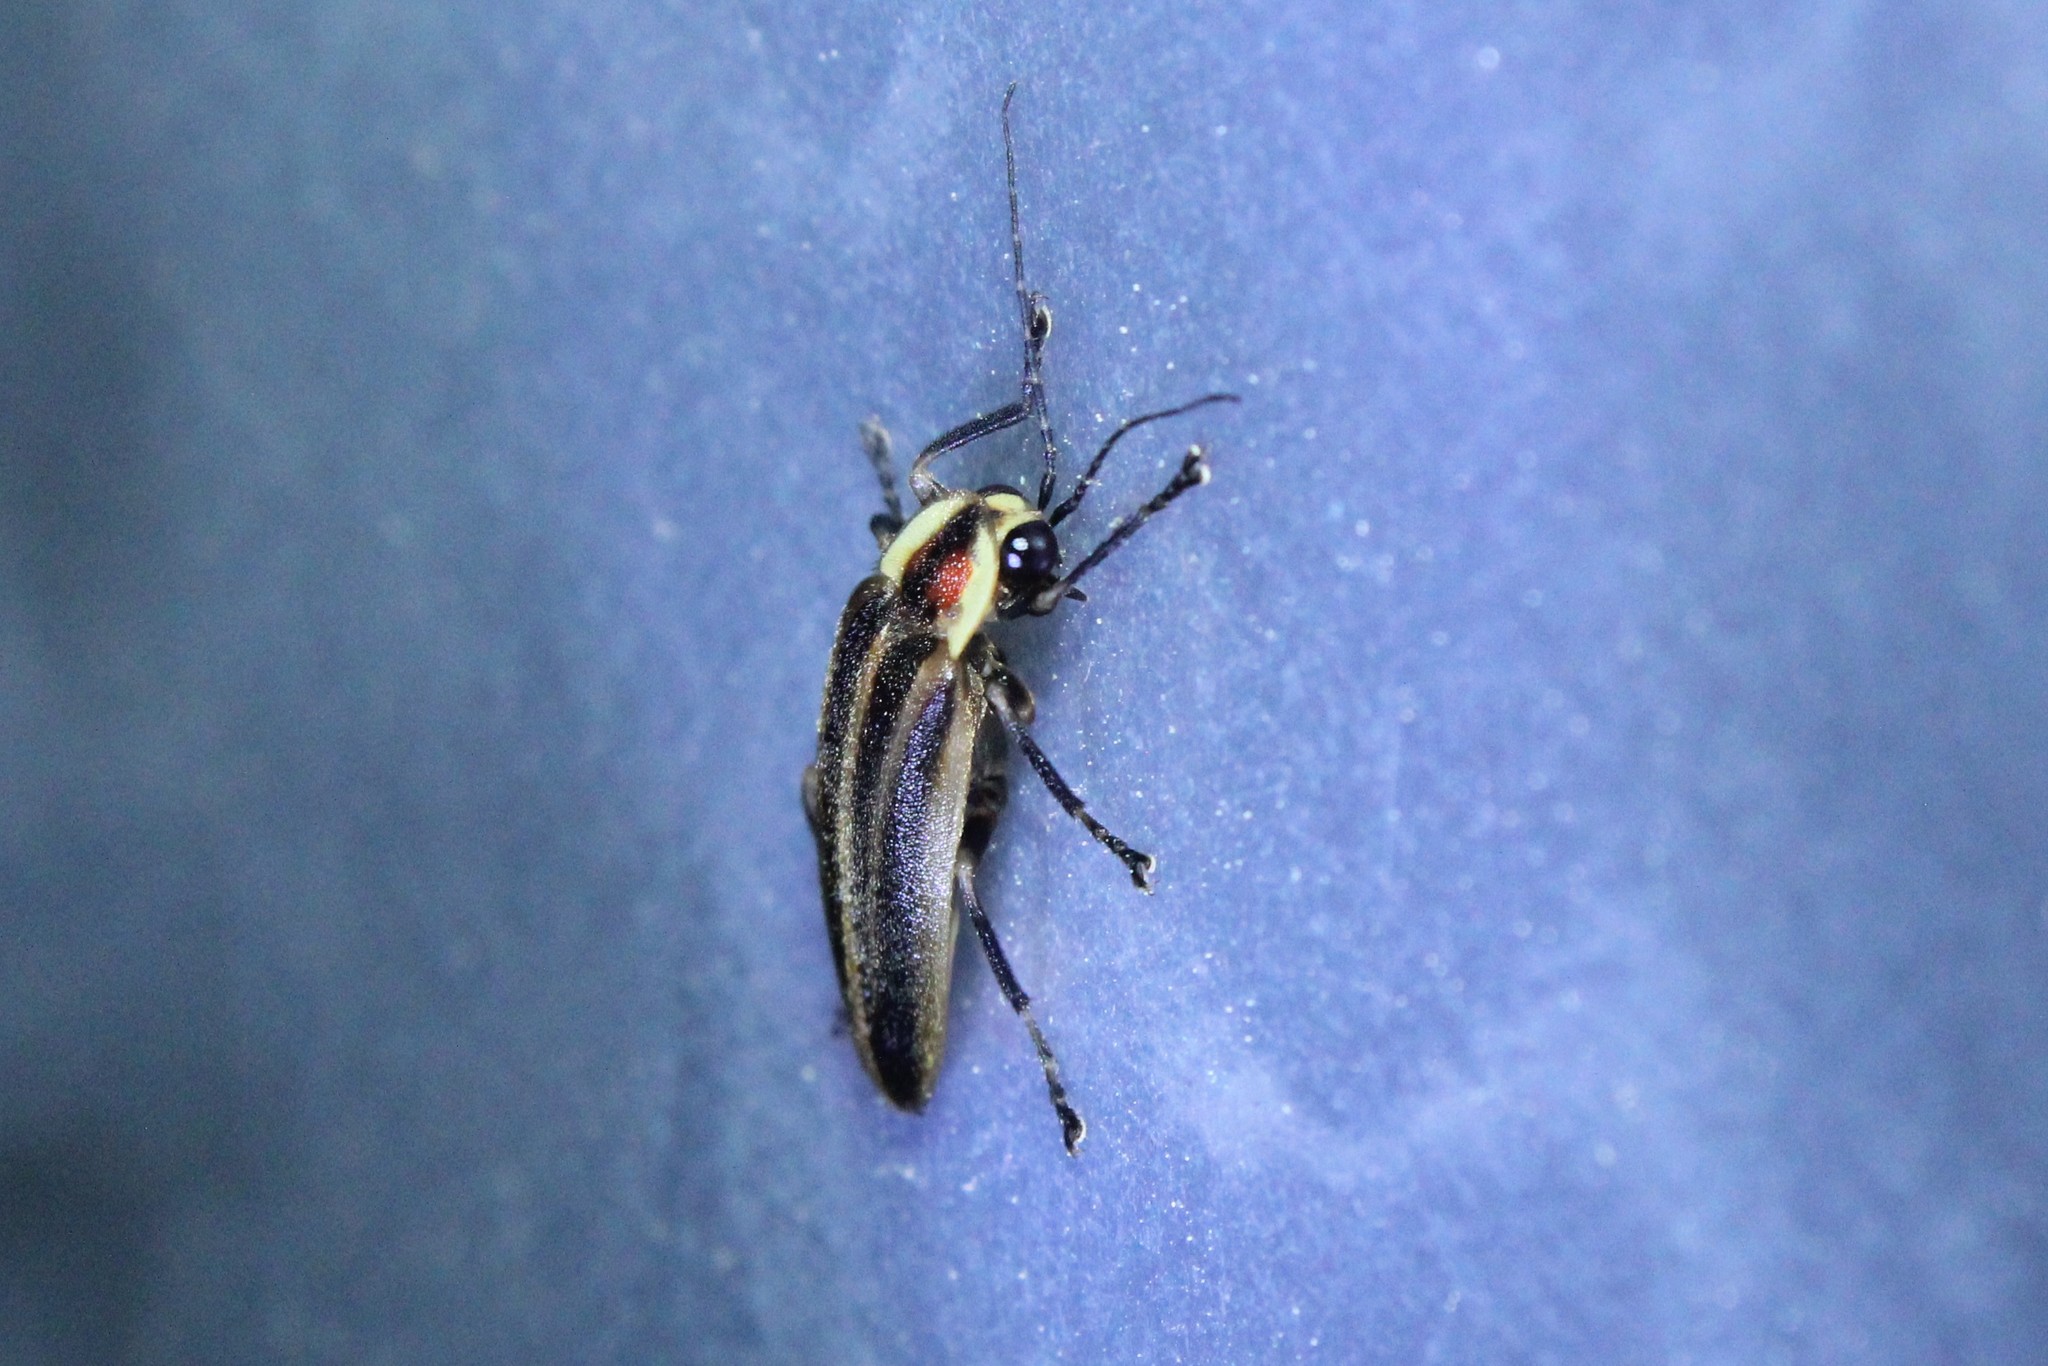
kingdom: Animalia
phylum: Arthropoda
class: Insecta
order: Coleoptera
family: Lampyridae
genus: Photuris
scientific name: Photuris
